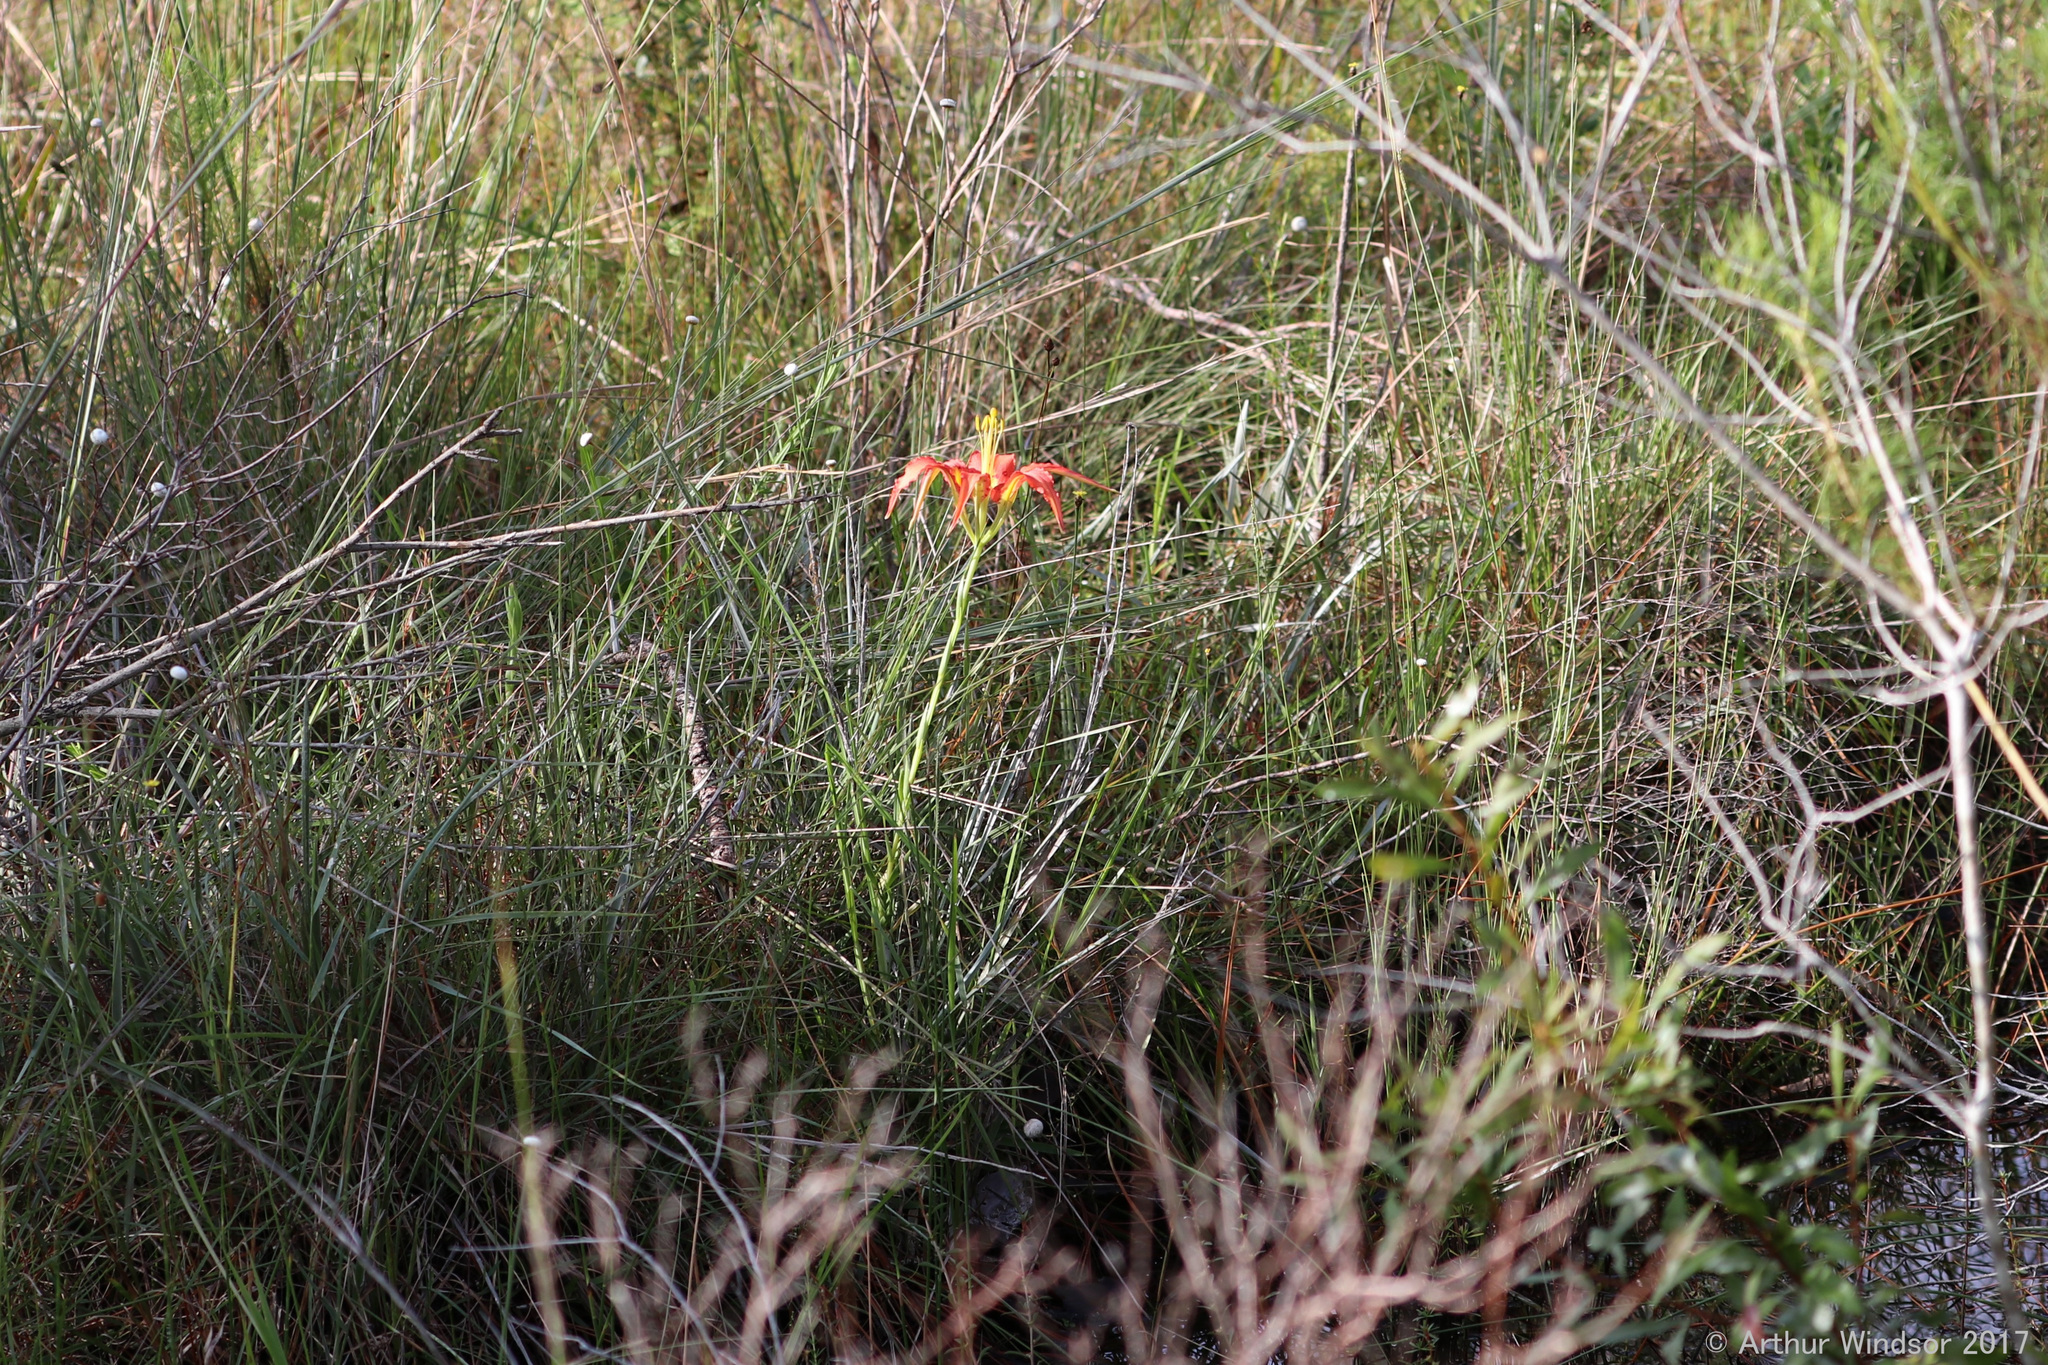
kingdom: Plantae
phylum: Tracheophyta
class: Liliopsida
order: Liliales
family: Liliaceae
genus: Lilium
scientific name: Lilium catesbaei
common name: Catesby's lily
